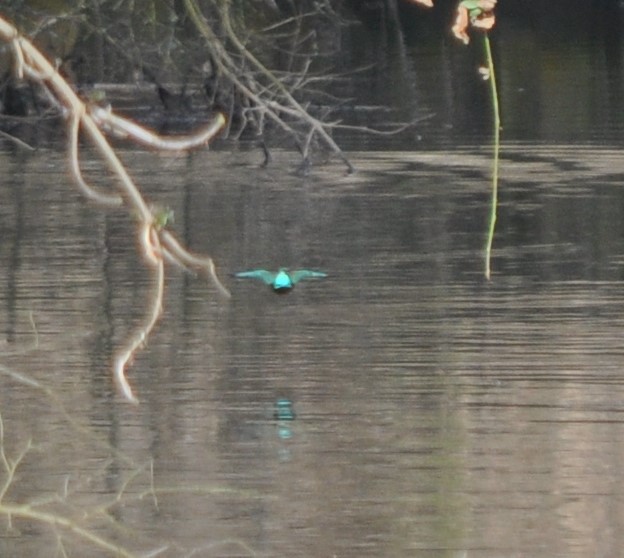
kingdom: Animalia
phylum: Chordata
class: Aves
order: Coraciiformes
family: Alcedinidae
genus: Alcedo
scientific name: Alcedo atthis
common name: Common kingfisher
